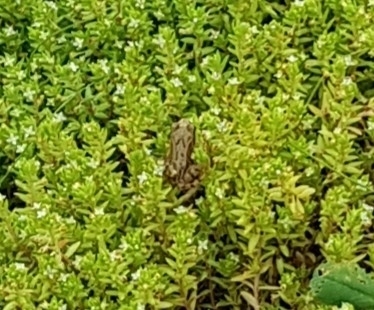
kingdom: Animalia
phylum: Chordata
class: Amphibia
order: Anura
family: Ranidae
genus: Rana
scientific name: Rana temporaria
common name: Common frog
